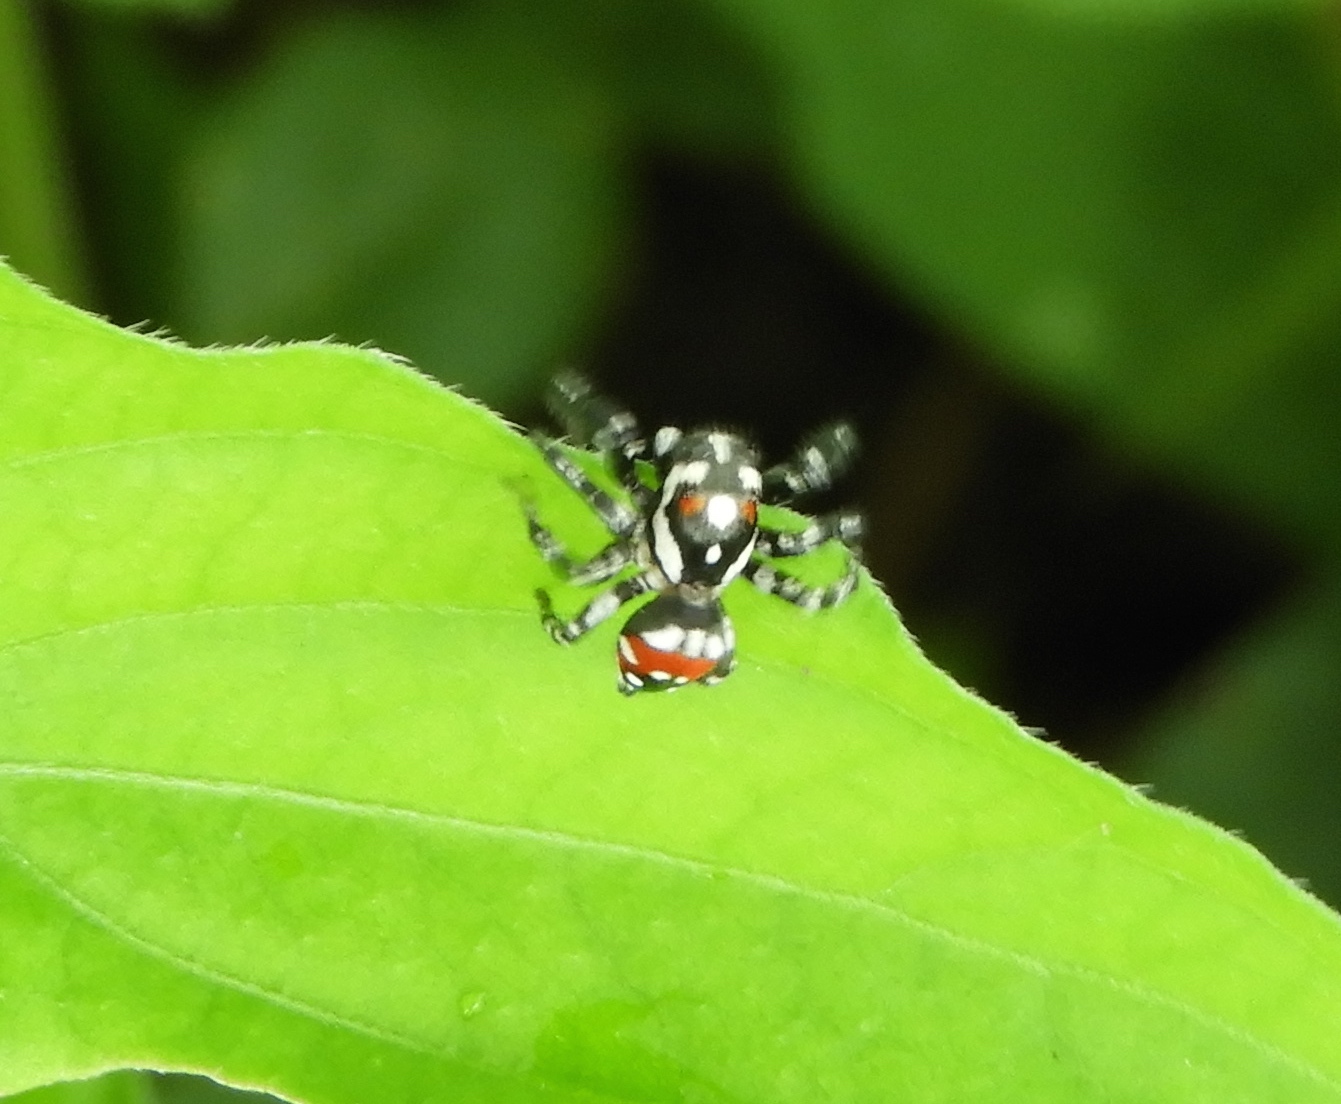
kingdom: Animalia
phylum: Arthropoda
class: Arachnida
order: Araneae
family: Salticidae
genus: Nycerella
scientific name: Nycerella delecta
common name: Jumping spiders
